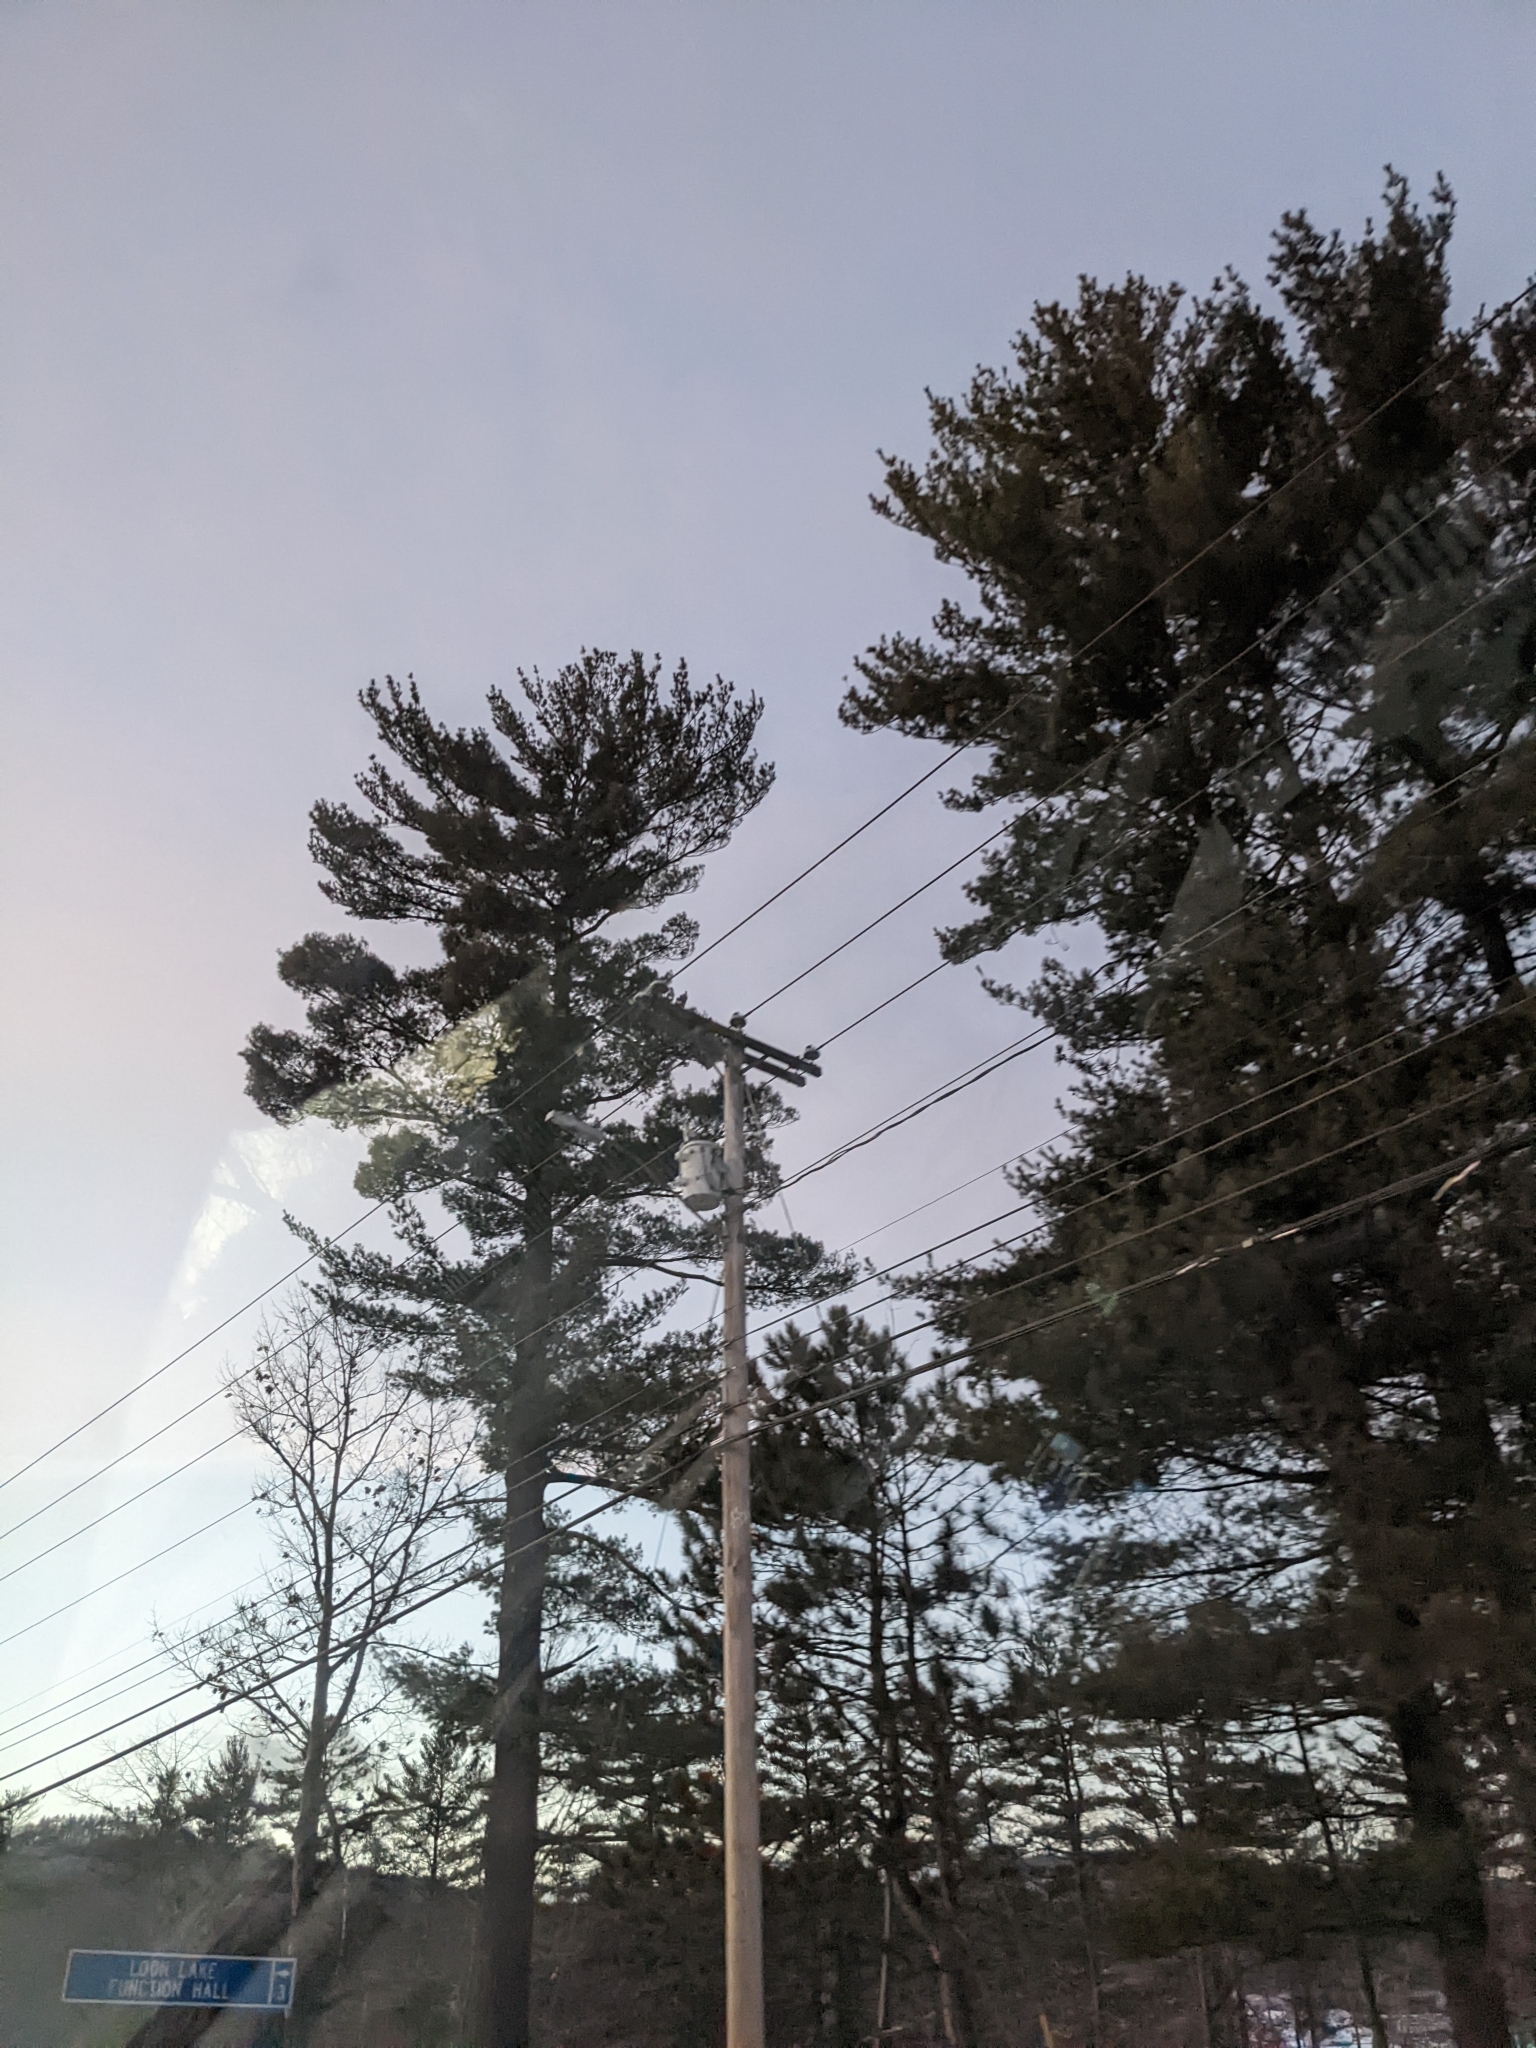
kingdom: Plantae
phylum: Tracheophyta
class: Pinopsida
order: Pinales
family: Pinaceae
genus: Pinus
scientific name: Pinus strobus
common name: Weymouth pine
